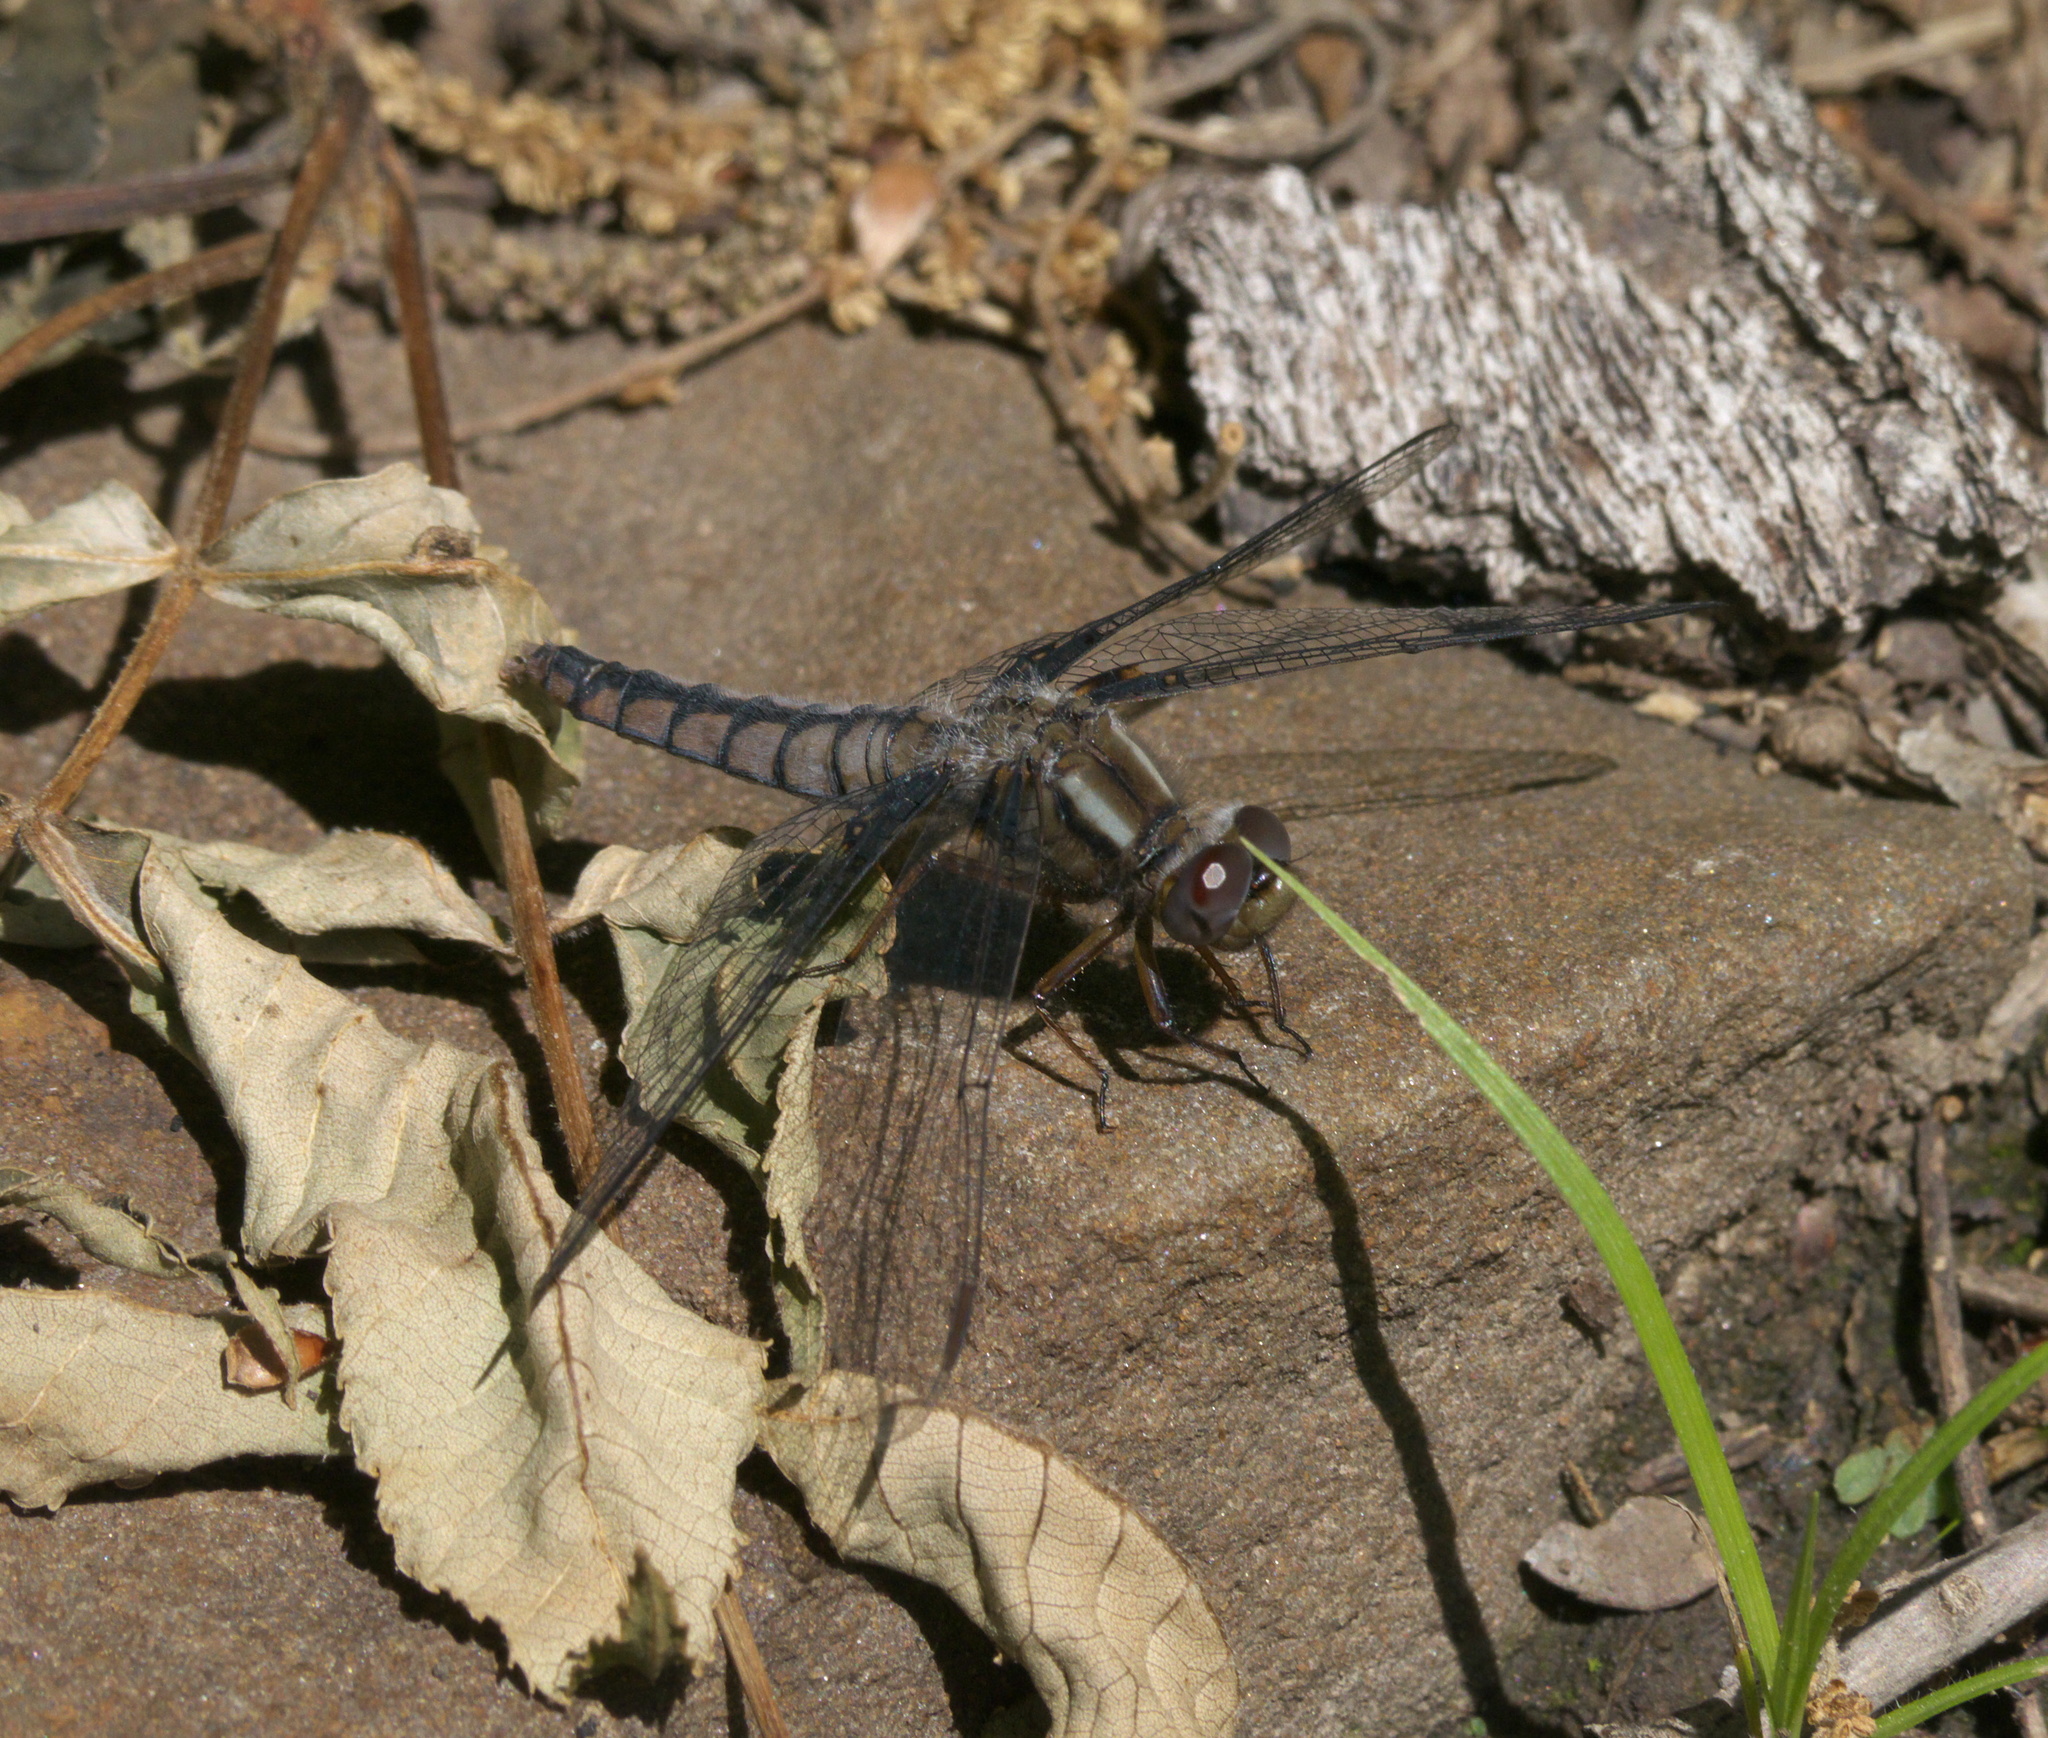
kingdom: Animalia
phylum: Arthropoda
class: Insecta
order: Odonata
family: Libellulidae
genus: Ladona
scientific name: Ladona deplanata
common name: Blue corporal
